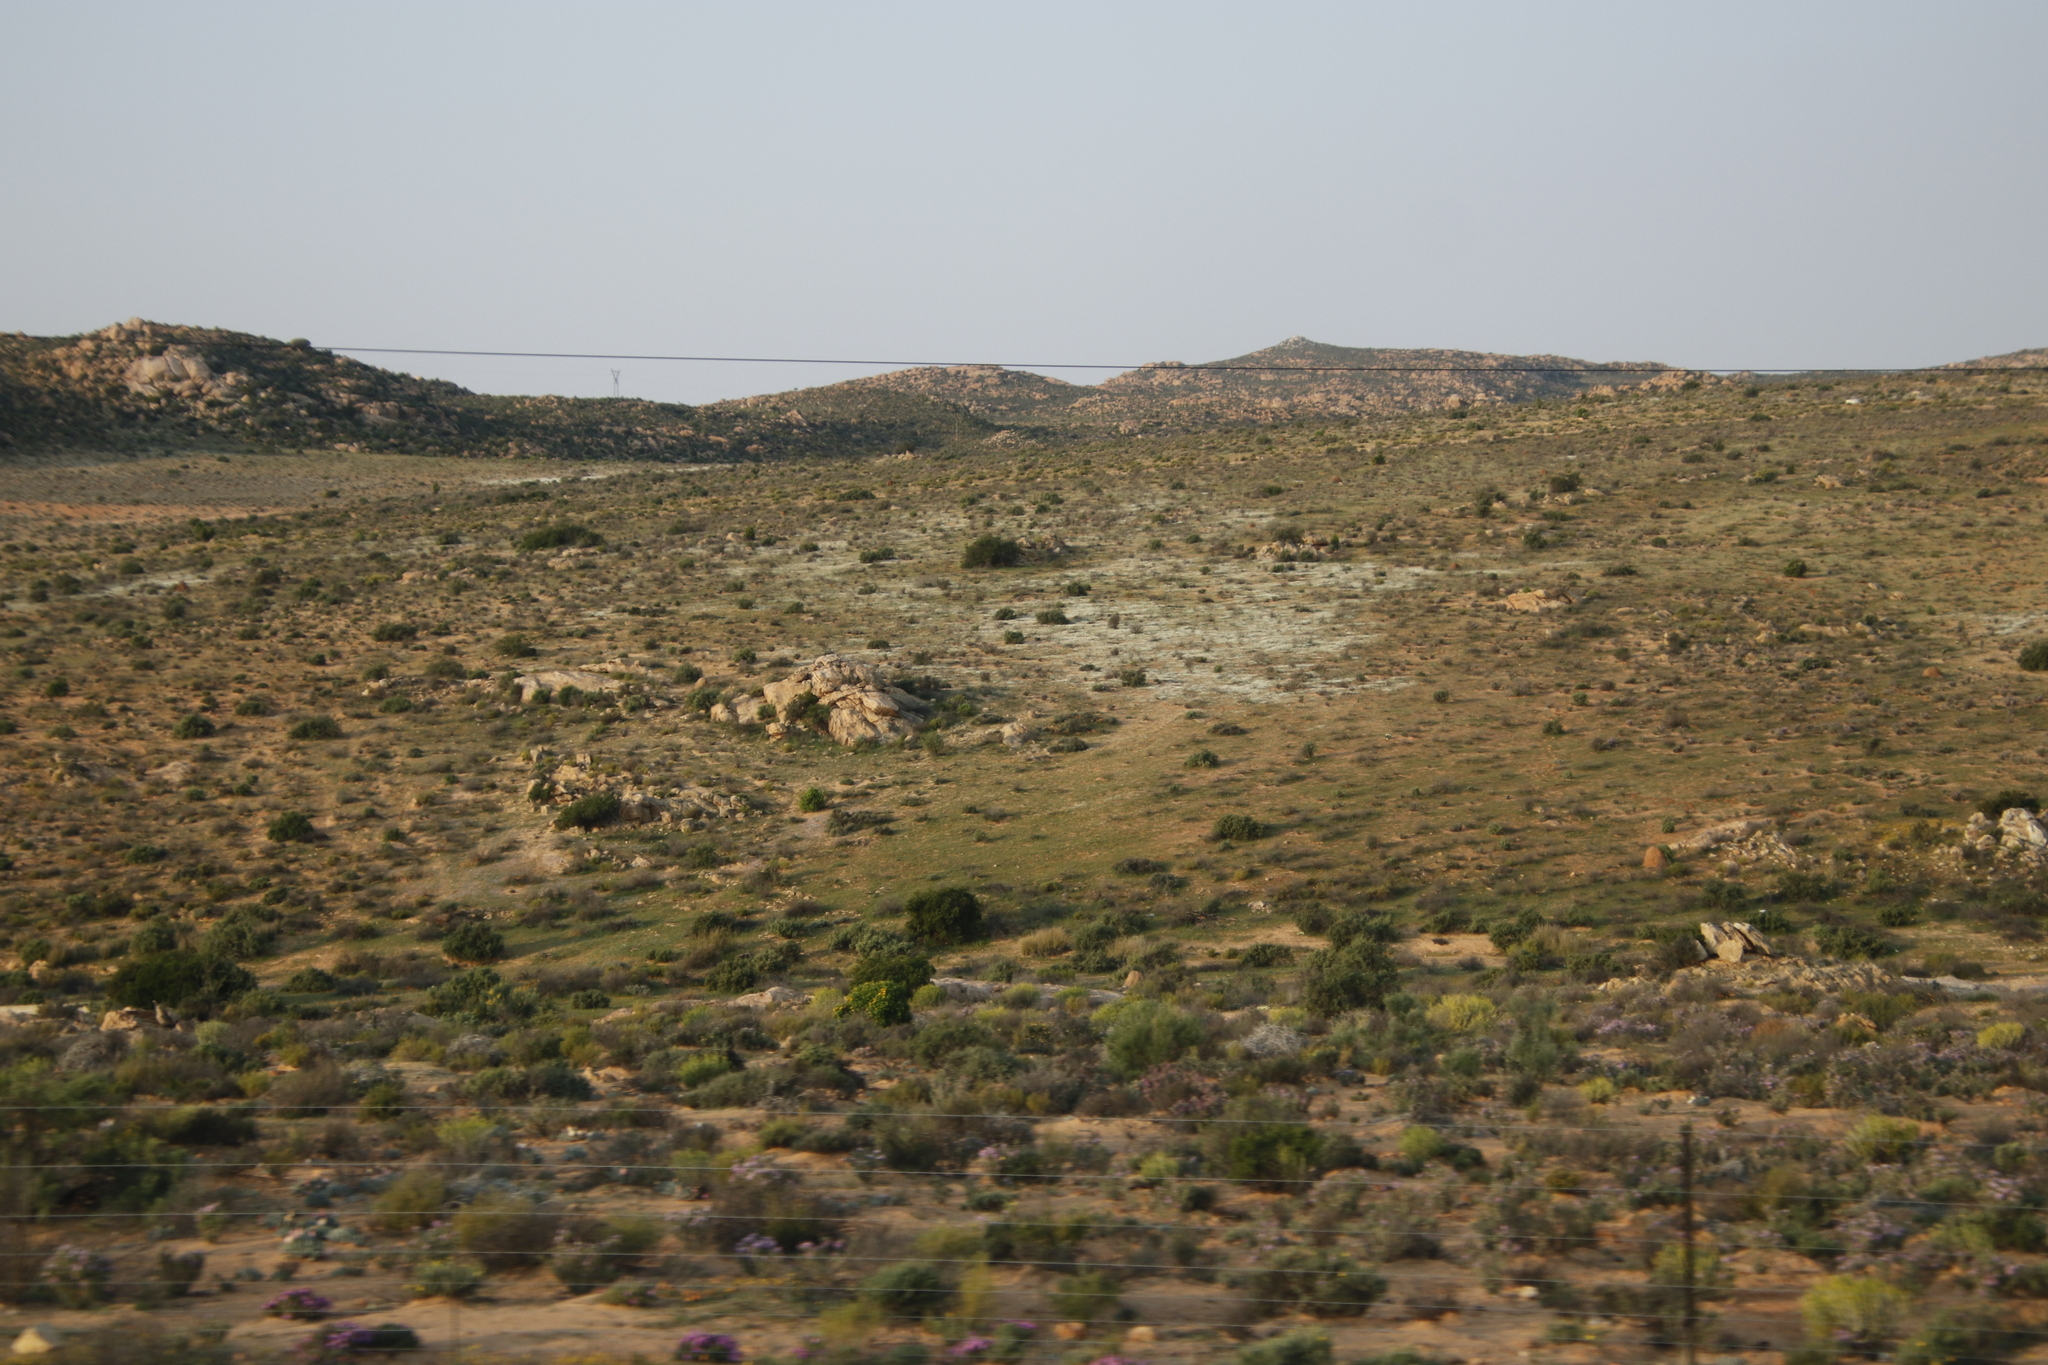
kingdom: Plantae
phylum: Tracheophyta
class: Magnoliopsida
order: Brassicales
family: Brassicaceae
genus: Heliophila
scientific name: Heliophila variabilis
